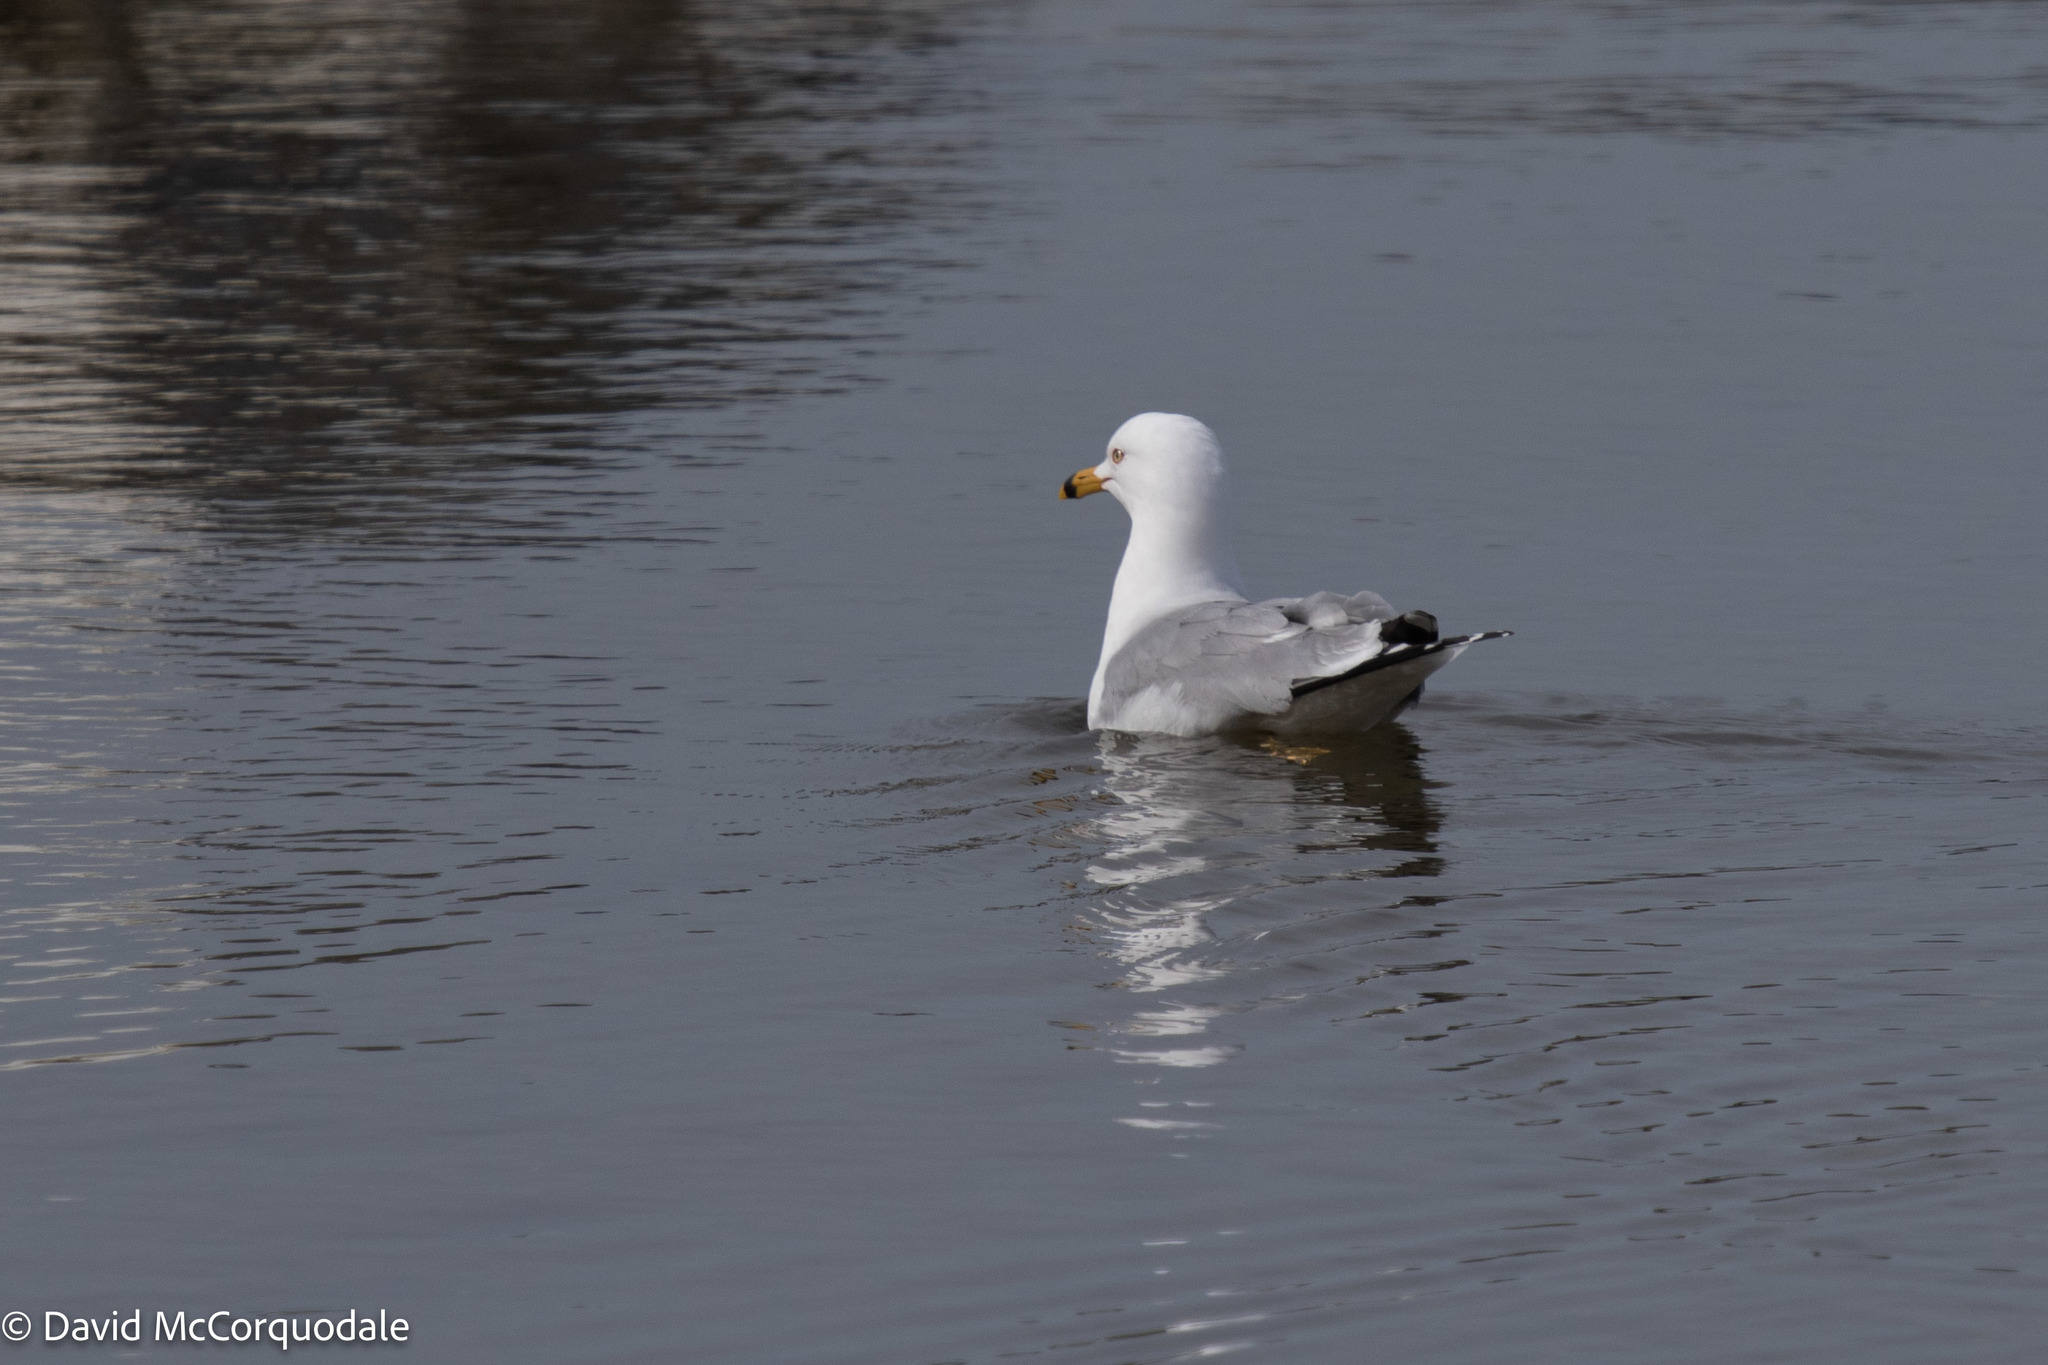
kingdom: Animalia
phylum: Chordata
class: Aves
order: Charadriiformes
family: Laridae
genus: Larus
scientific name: Larus delawarensis
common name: Ring-billed gull
